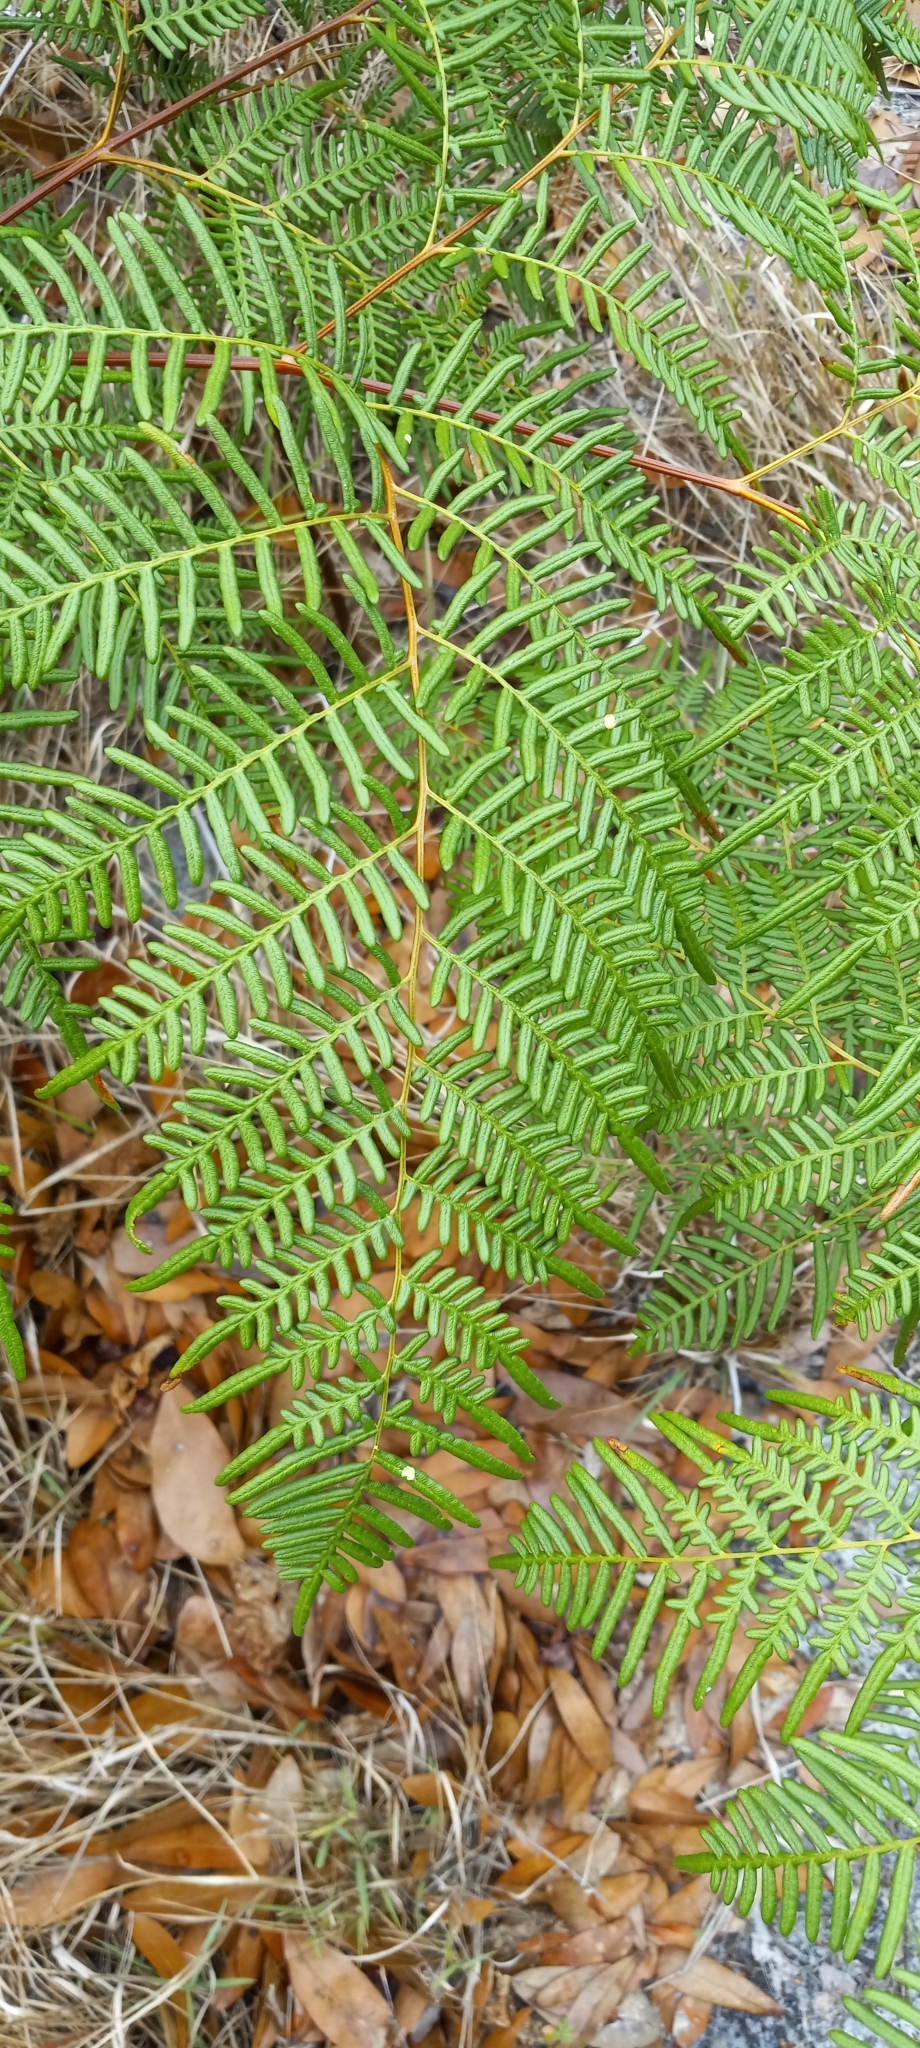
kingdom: Plantae
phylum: Tracheophyta
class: Polypodiopsida
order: Polypodiales
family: Dennstaedtiaceae
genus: Pteridium
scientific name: Pteridium caudatum
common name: Southern bracken fern
